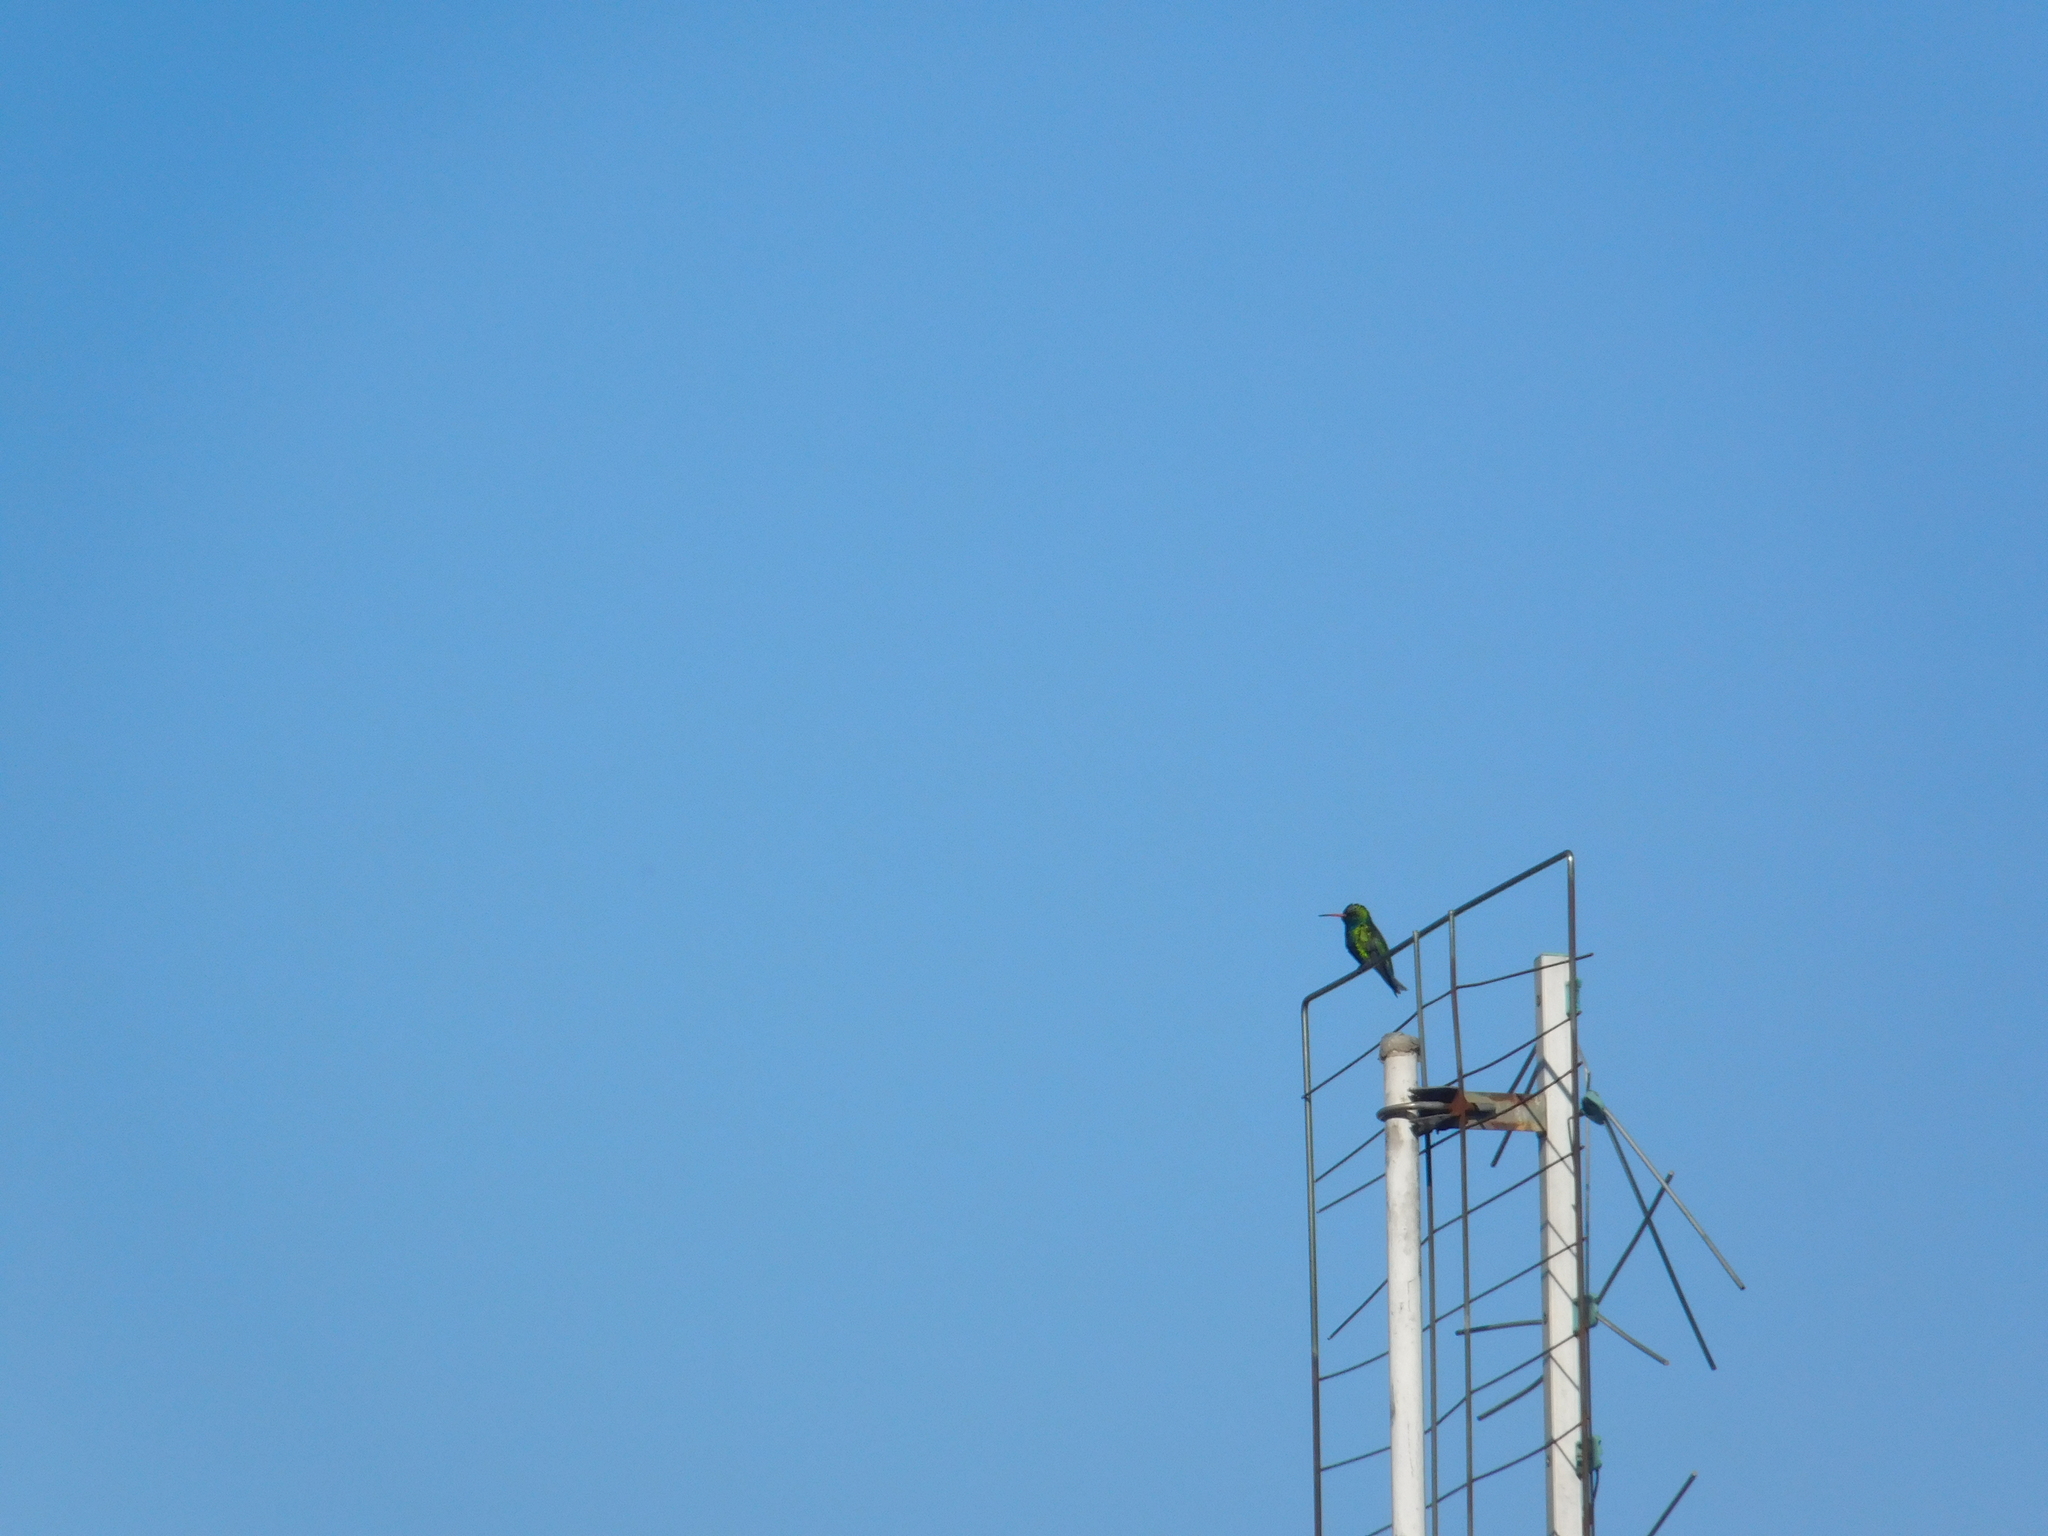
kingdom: Animalia
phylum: Chordata
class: Aves
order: Apodiformes
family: Trochilidae
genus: Chlorostilbon
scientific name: Chlorostilbon lucidus
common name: Glittering-bellied emerald
